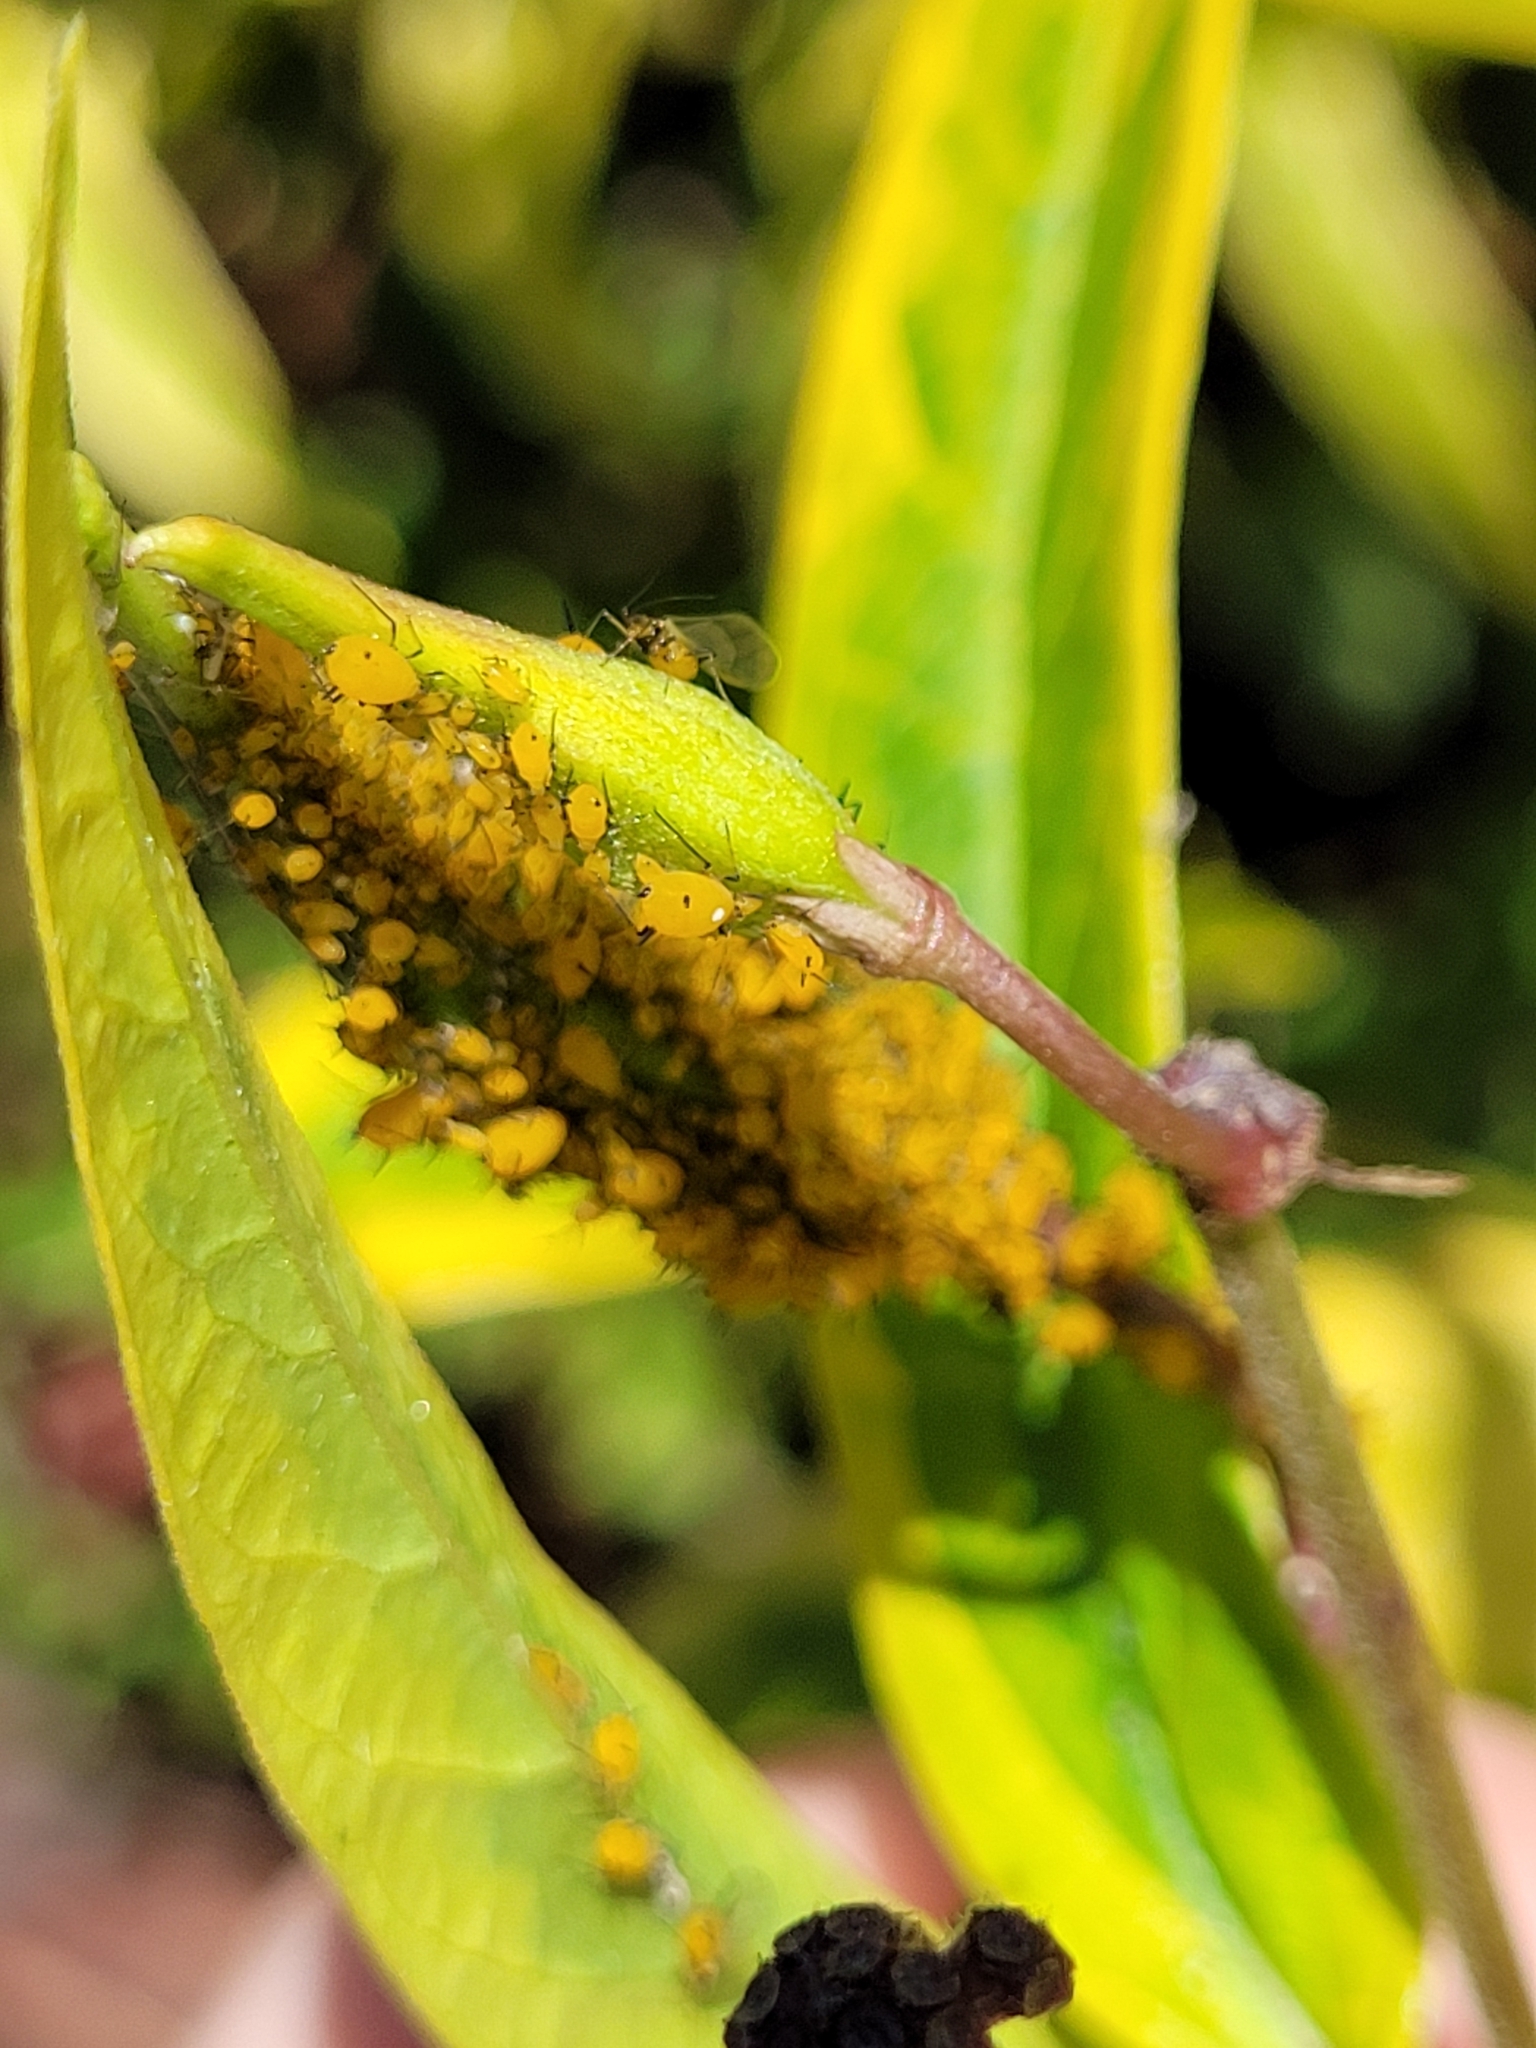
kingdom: Animalia
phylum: Arthropoda
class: Insecta
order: Hemiptera
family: Aphididae
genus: Aphis
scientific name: Aphis nerii
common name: Oleander aphid
